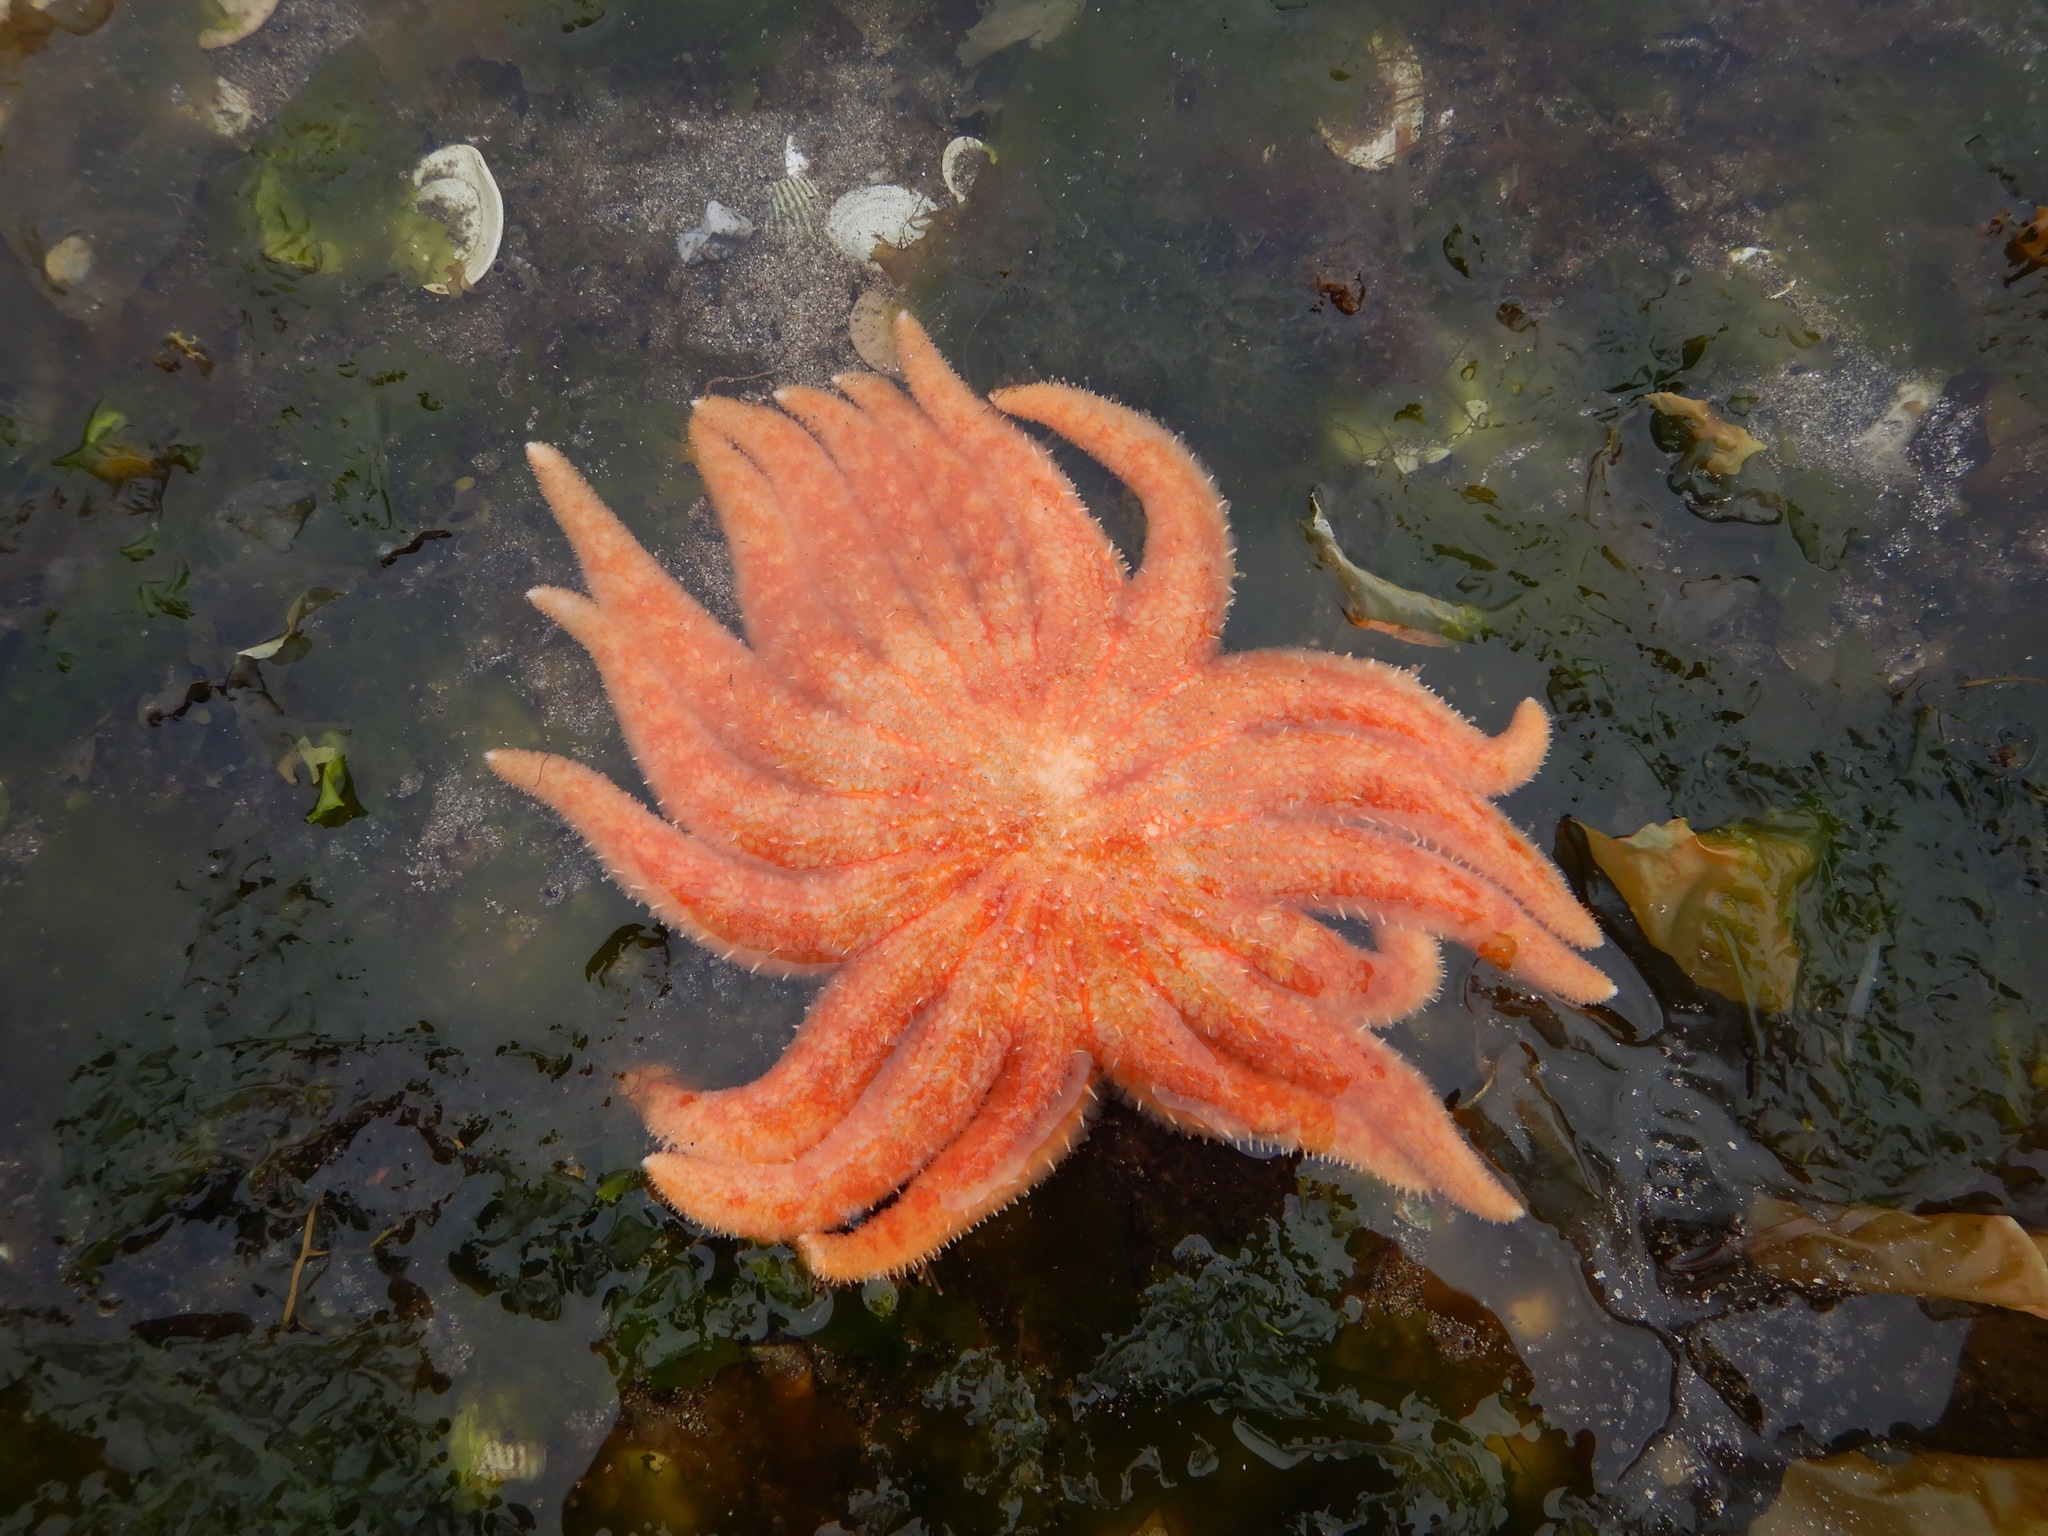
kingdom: Animalia
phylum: Echinodermata
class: Asteroidea
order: Forcipulatida
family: Asteriidae
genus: Pycnopodia
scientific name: Pycnopodia helianthoides
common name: Rag mop
